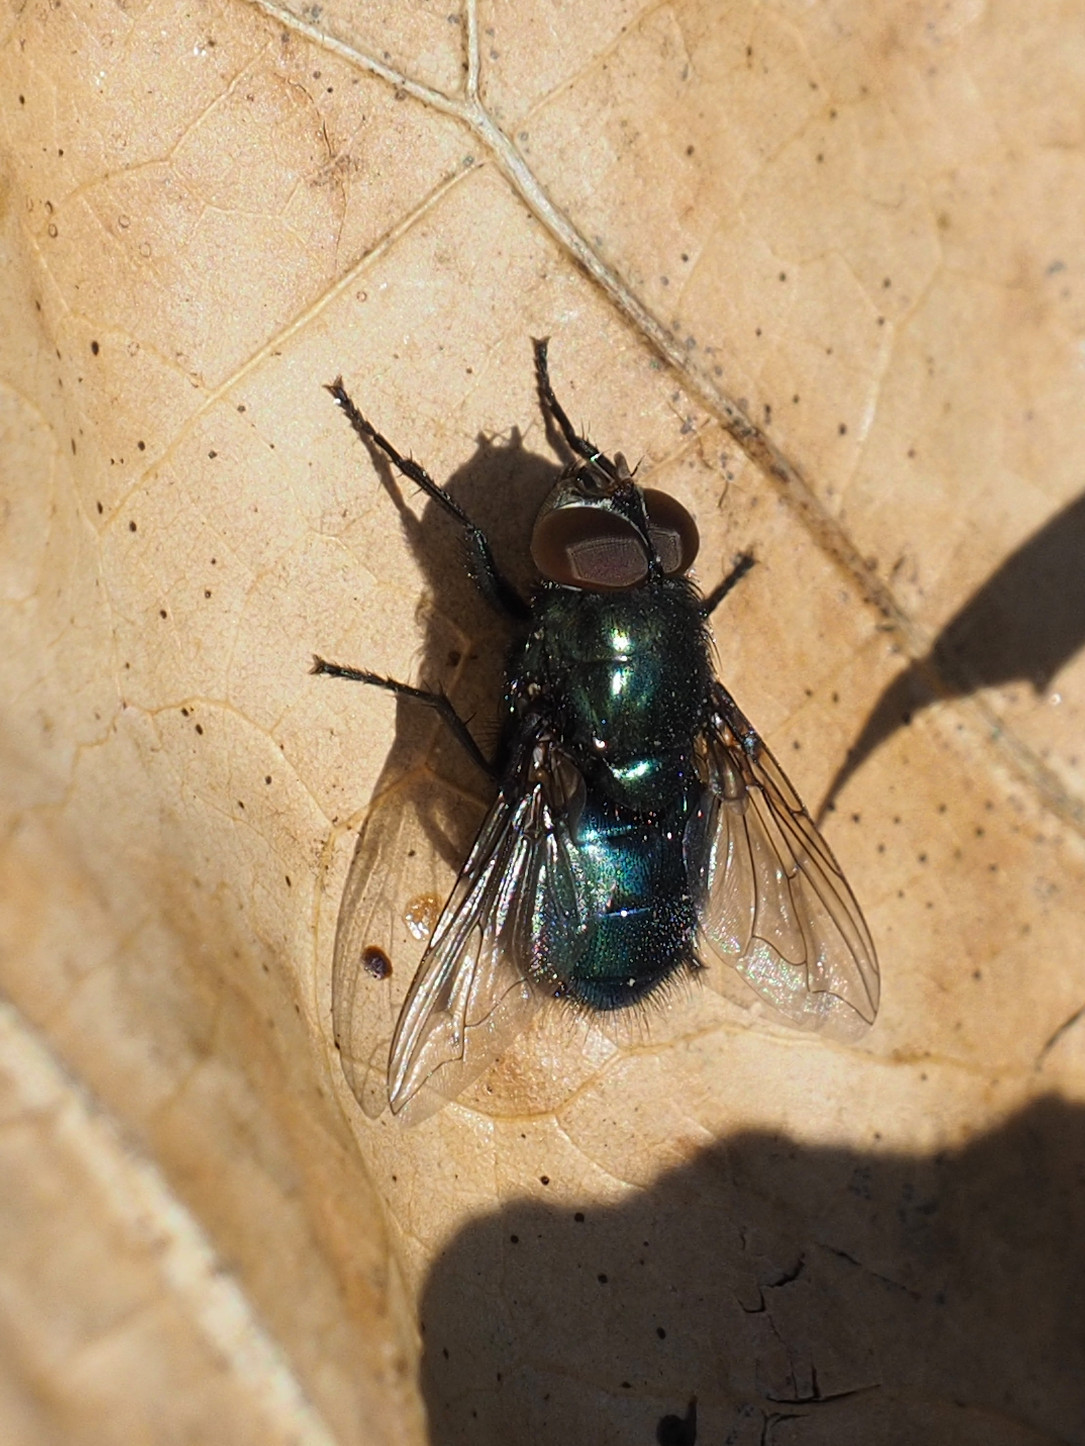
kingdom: Animalia
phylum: Arthropoda
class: Insecta
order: Diptera
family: Calliphoridae
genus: Phormia
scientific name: Phormia regina
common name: Black blow fly
